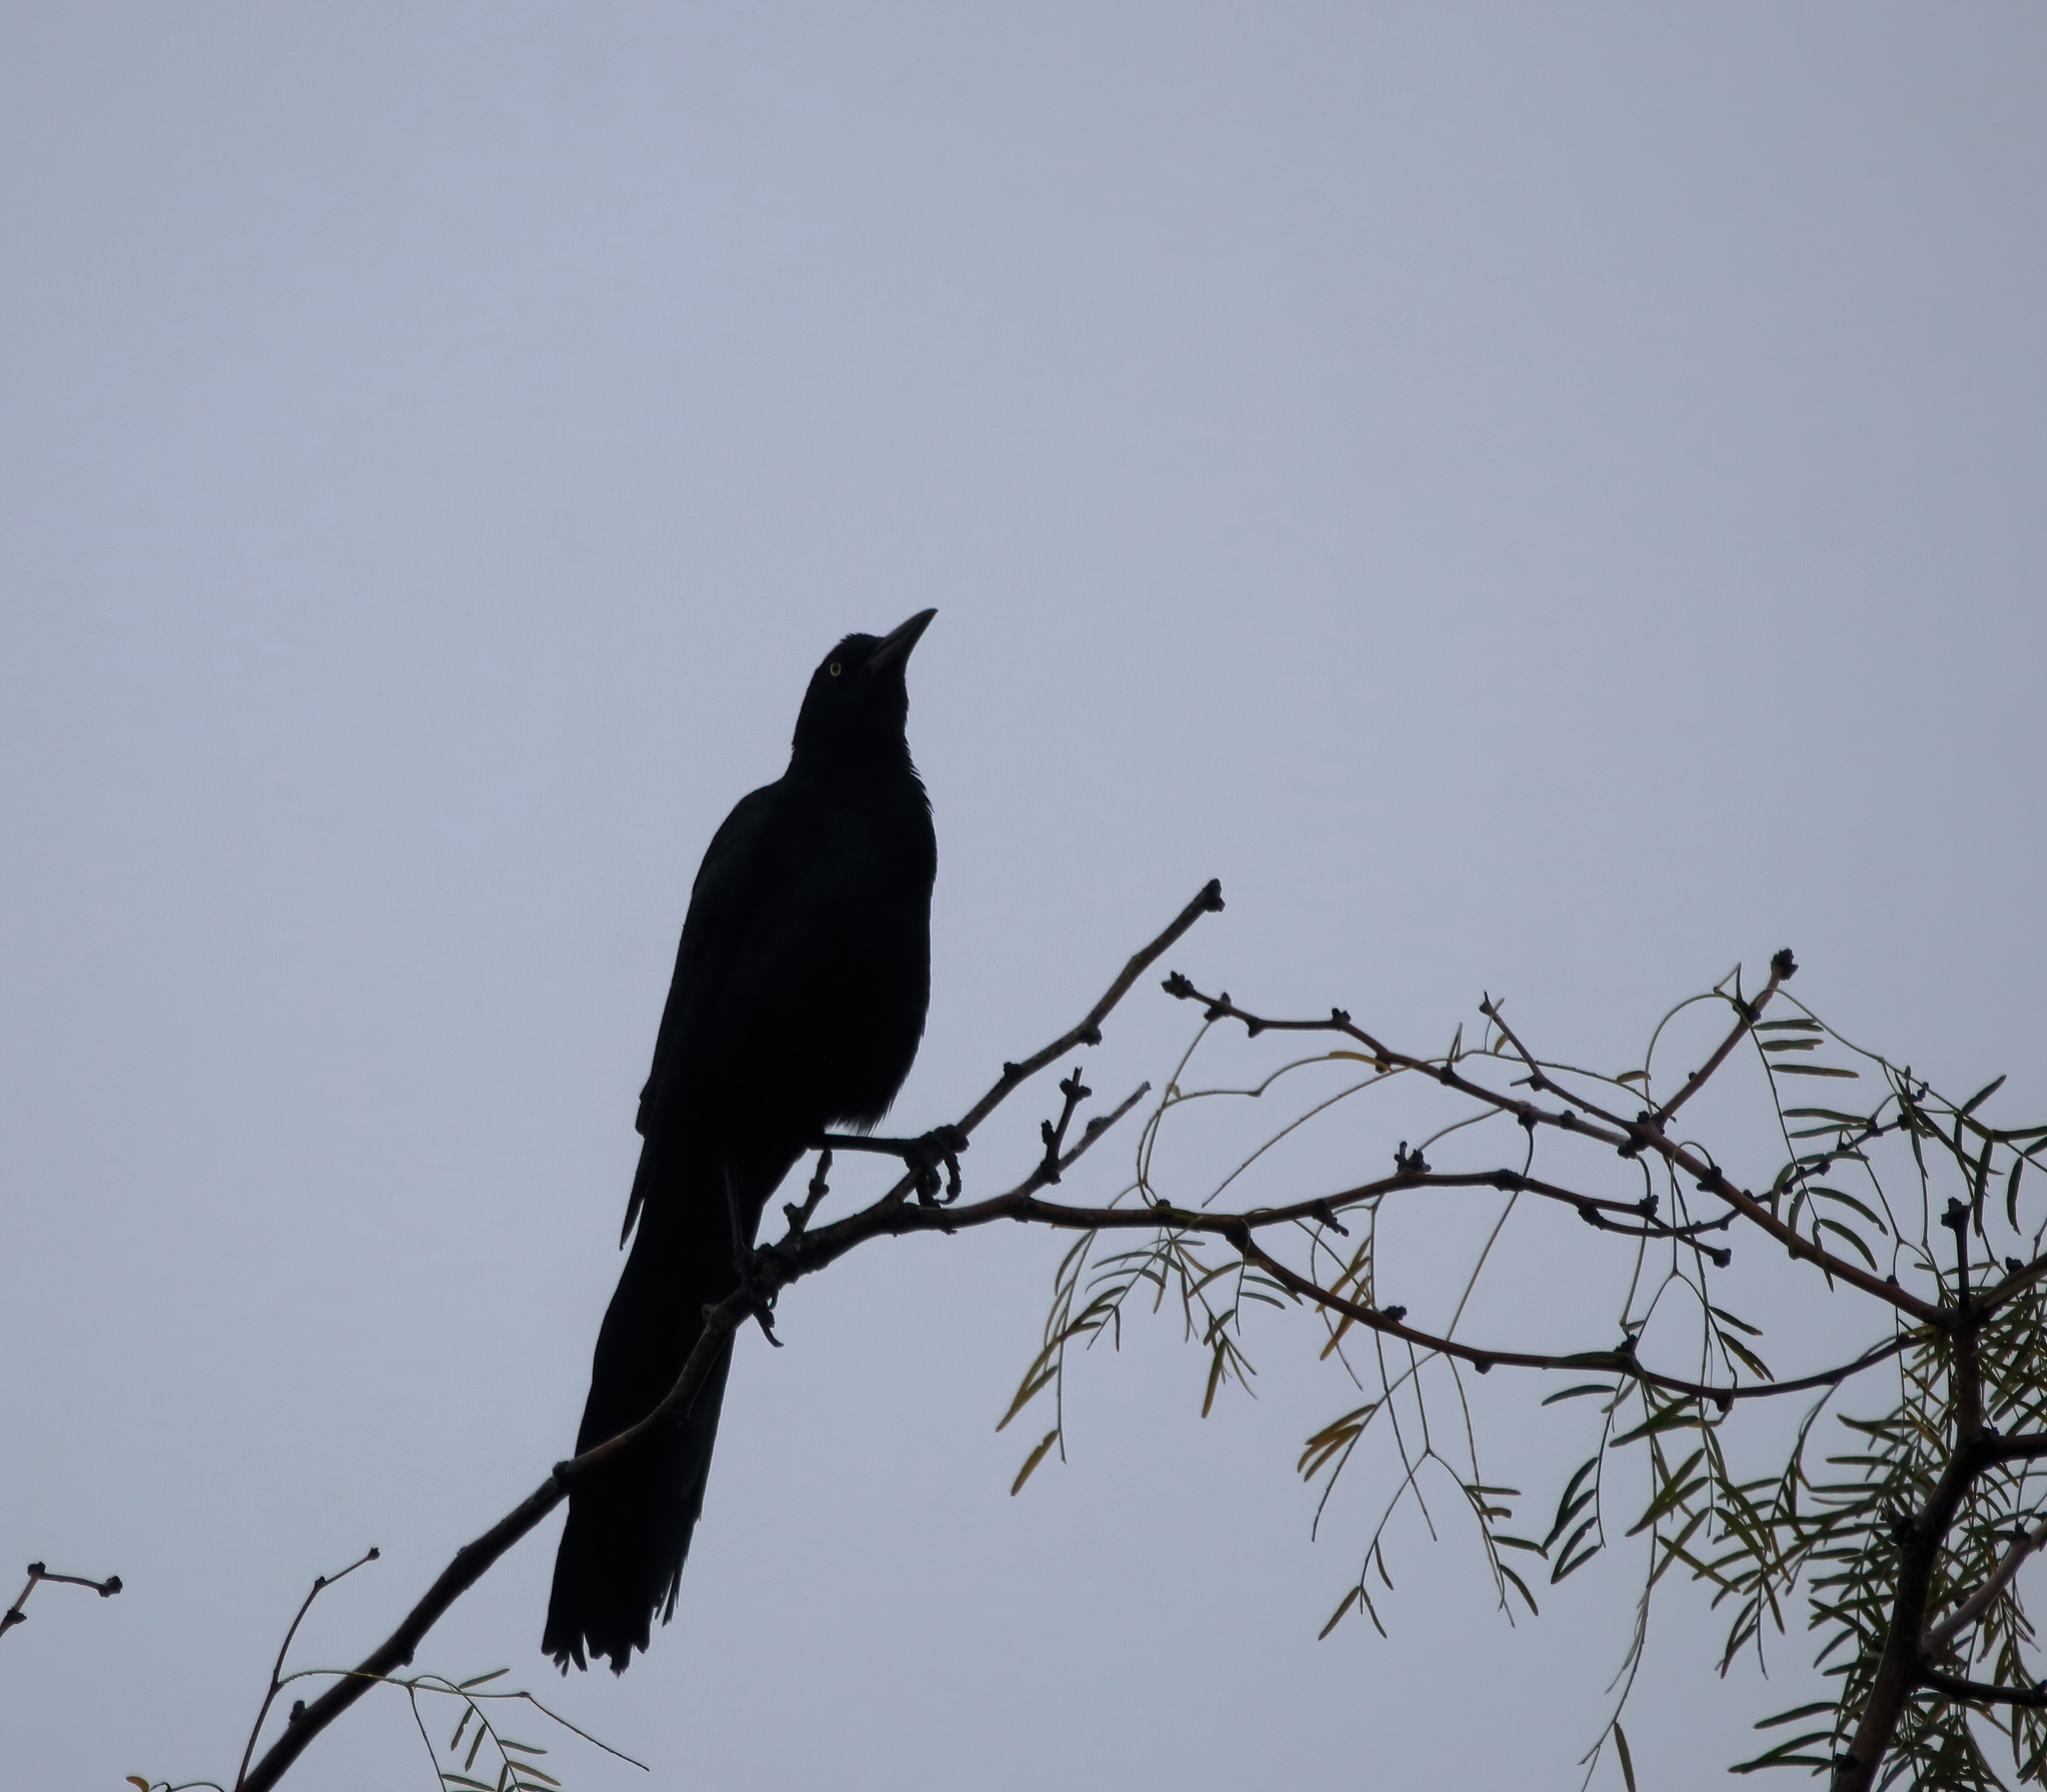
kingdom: Animalia
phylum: Chordata
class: Aves
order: Passeriformes
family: Icteridae
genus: Quiscalus
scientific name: Quiscalus mexicanus
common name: Great-tailed grackle
